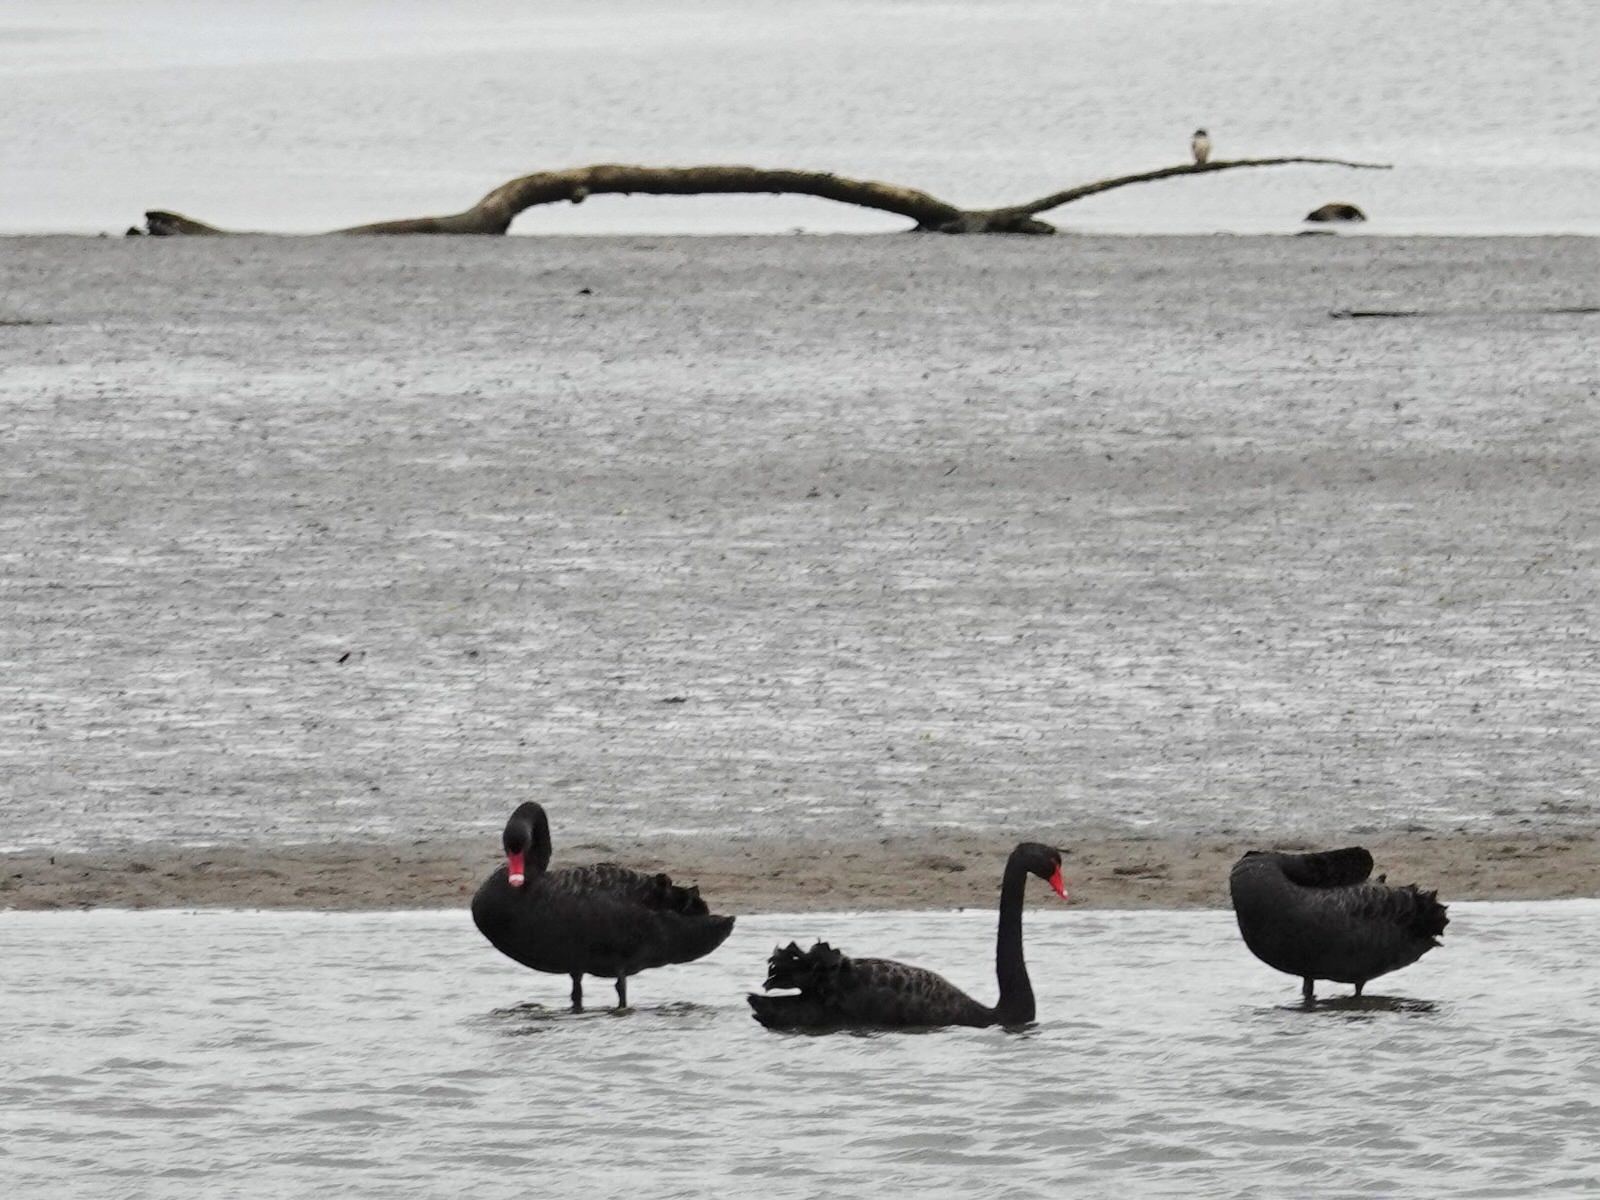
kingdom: Animalia
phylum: Chordata
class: Aves
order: Anseriformes
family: Anatidae
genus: Cygnus
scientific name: Cygnus atratus
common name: Black swan
